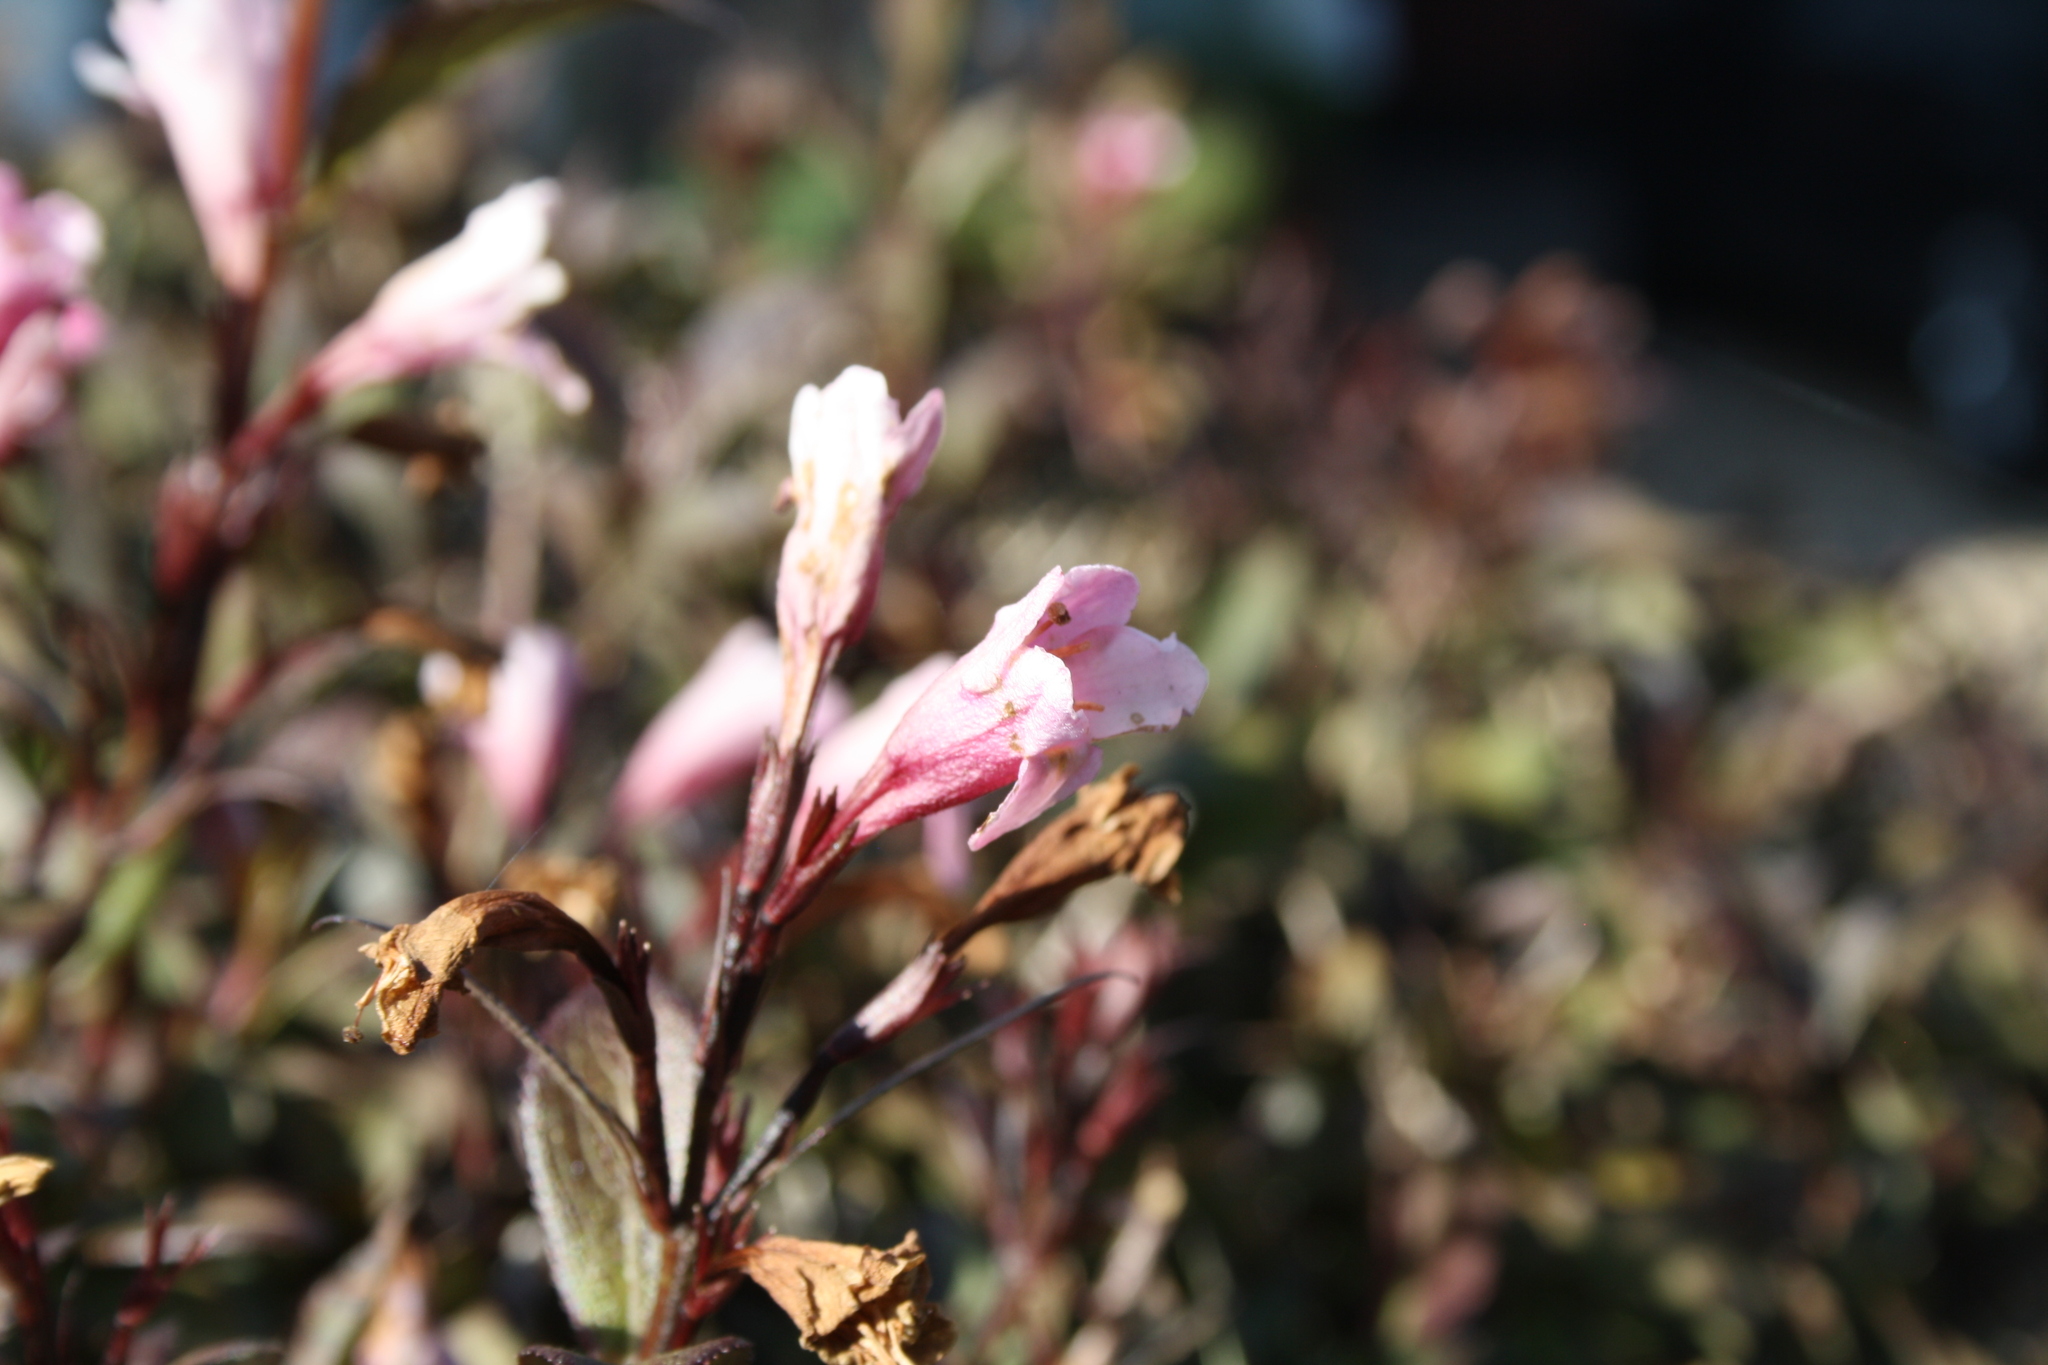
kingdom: Plantae
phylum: Tracheophyta
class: Magnoliopsida
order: Dipsacales
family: Caprifoliaceae
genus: Weigela
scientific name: Weigela florida
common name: Weigelia
